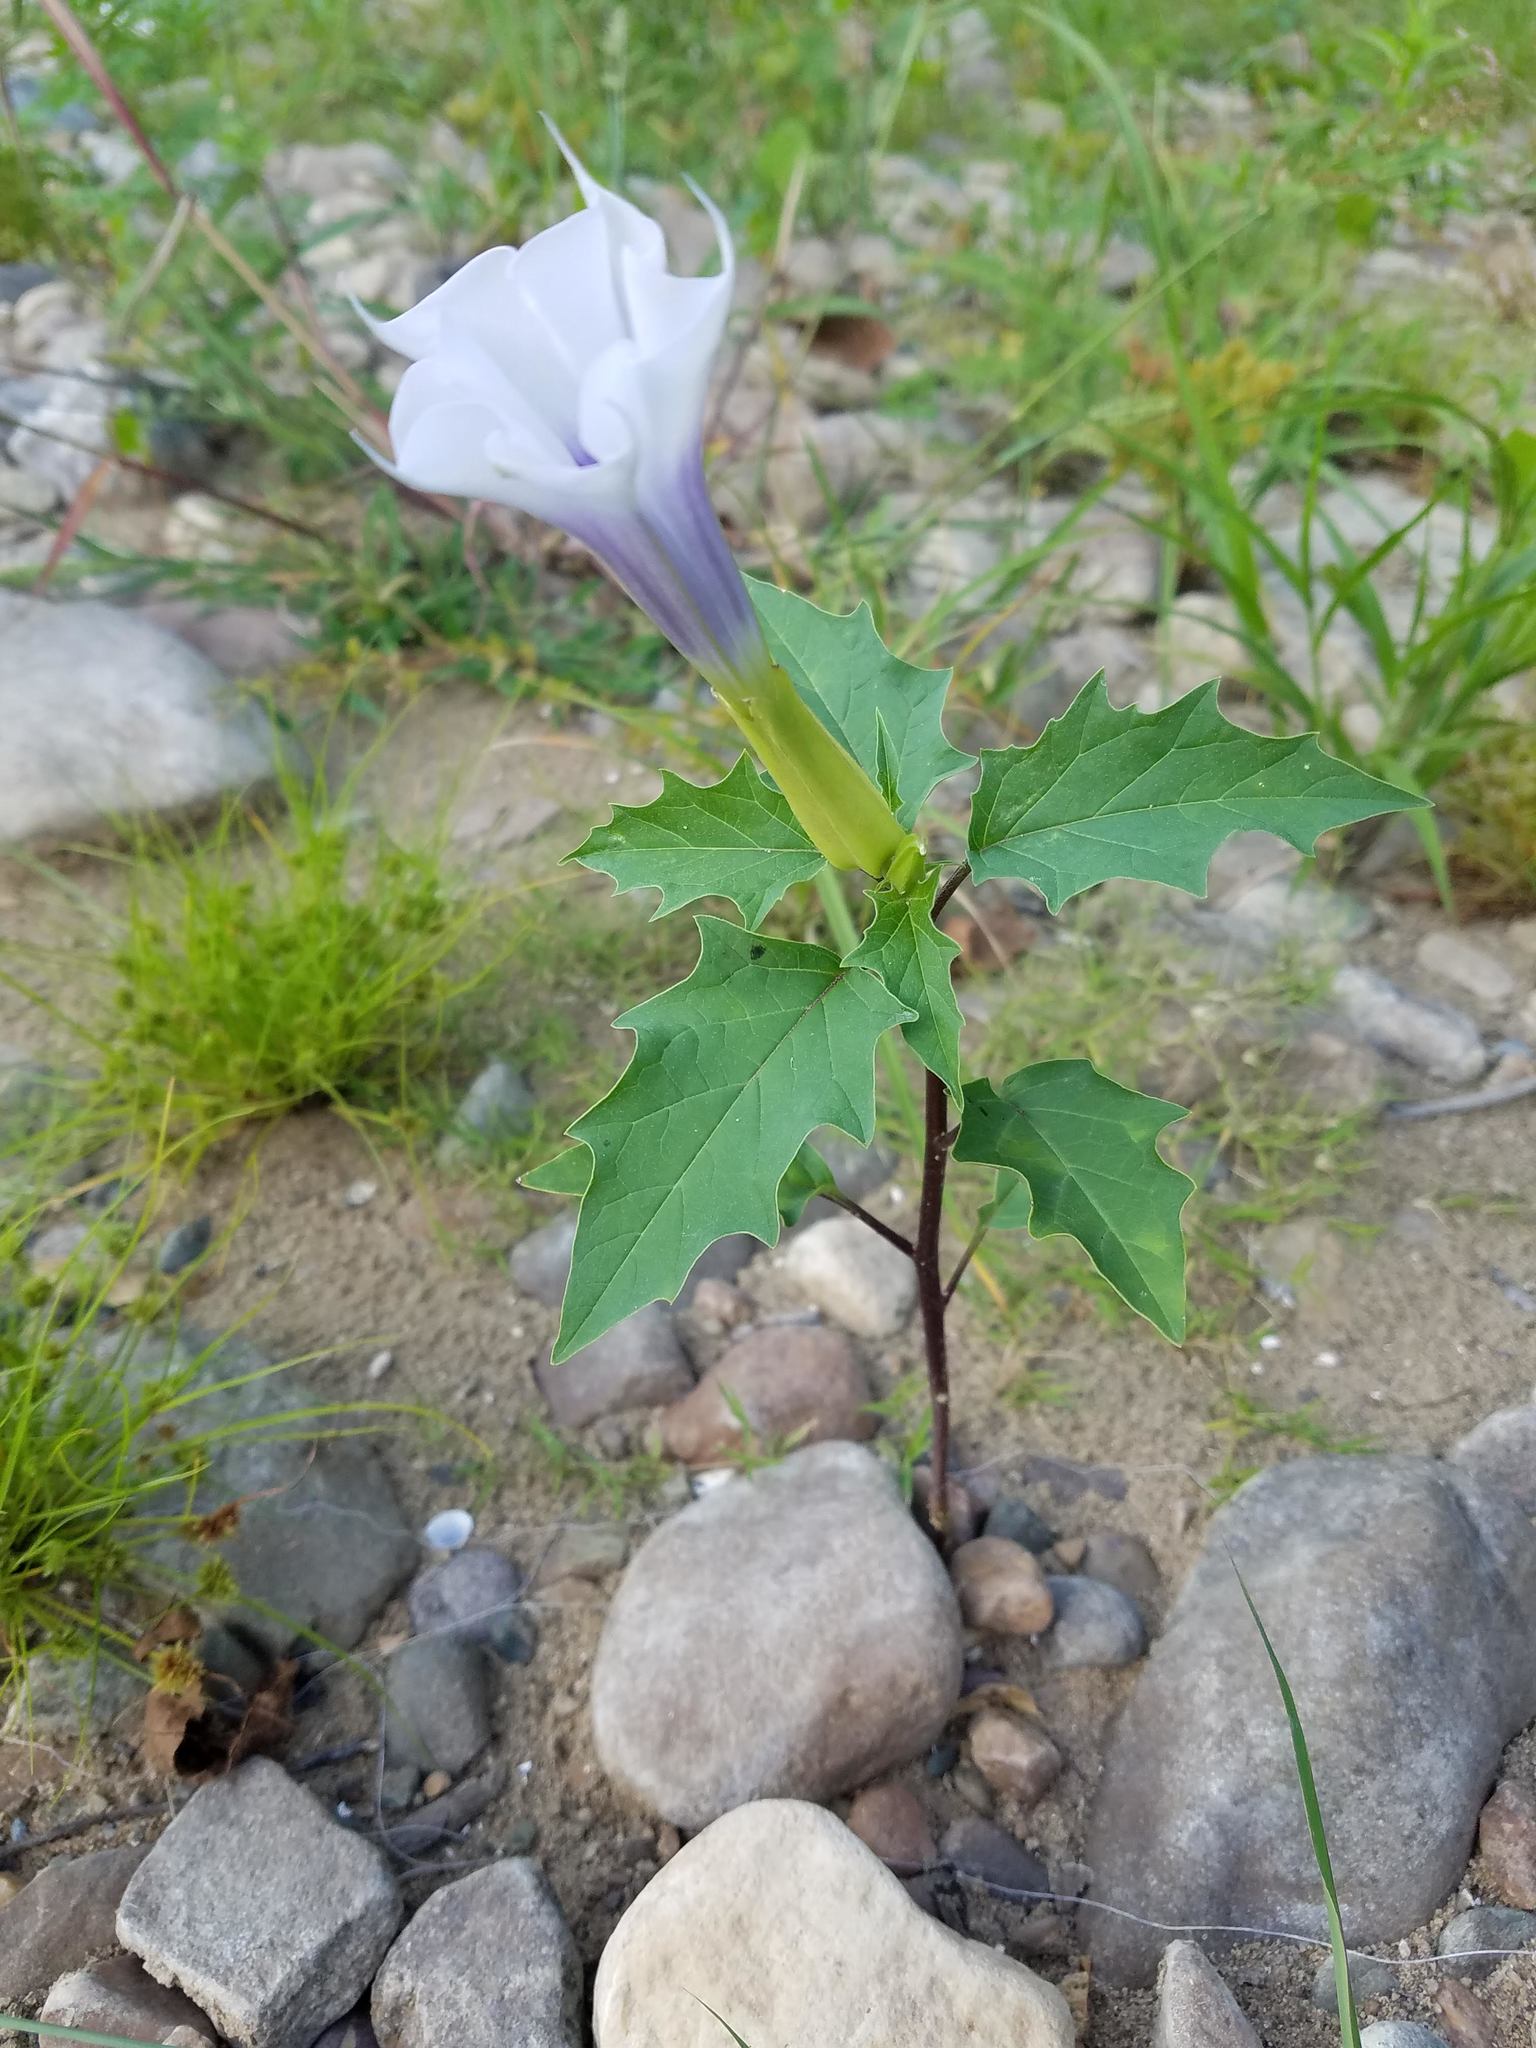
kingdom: Plantae
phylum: Tracheophyta
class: Magnoliopsida
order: Solanales
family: Solanaceae
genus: Datura
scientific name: Datura stramonium
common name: Thorn-apple
